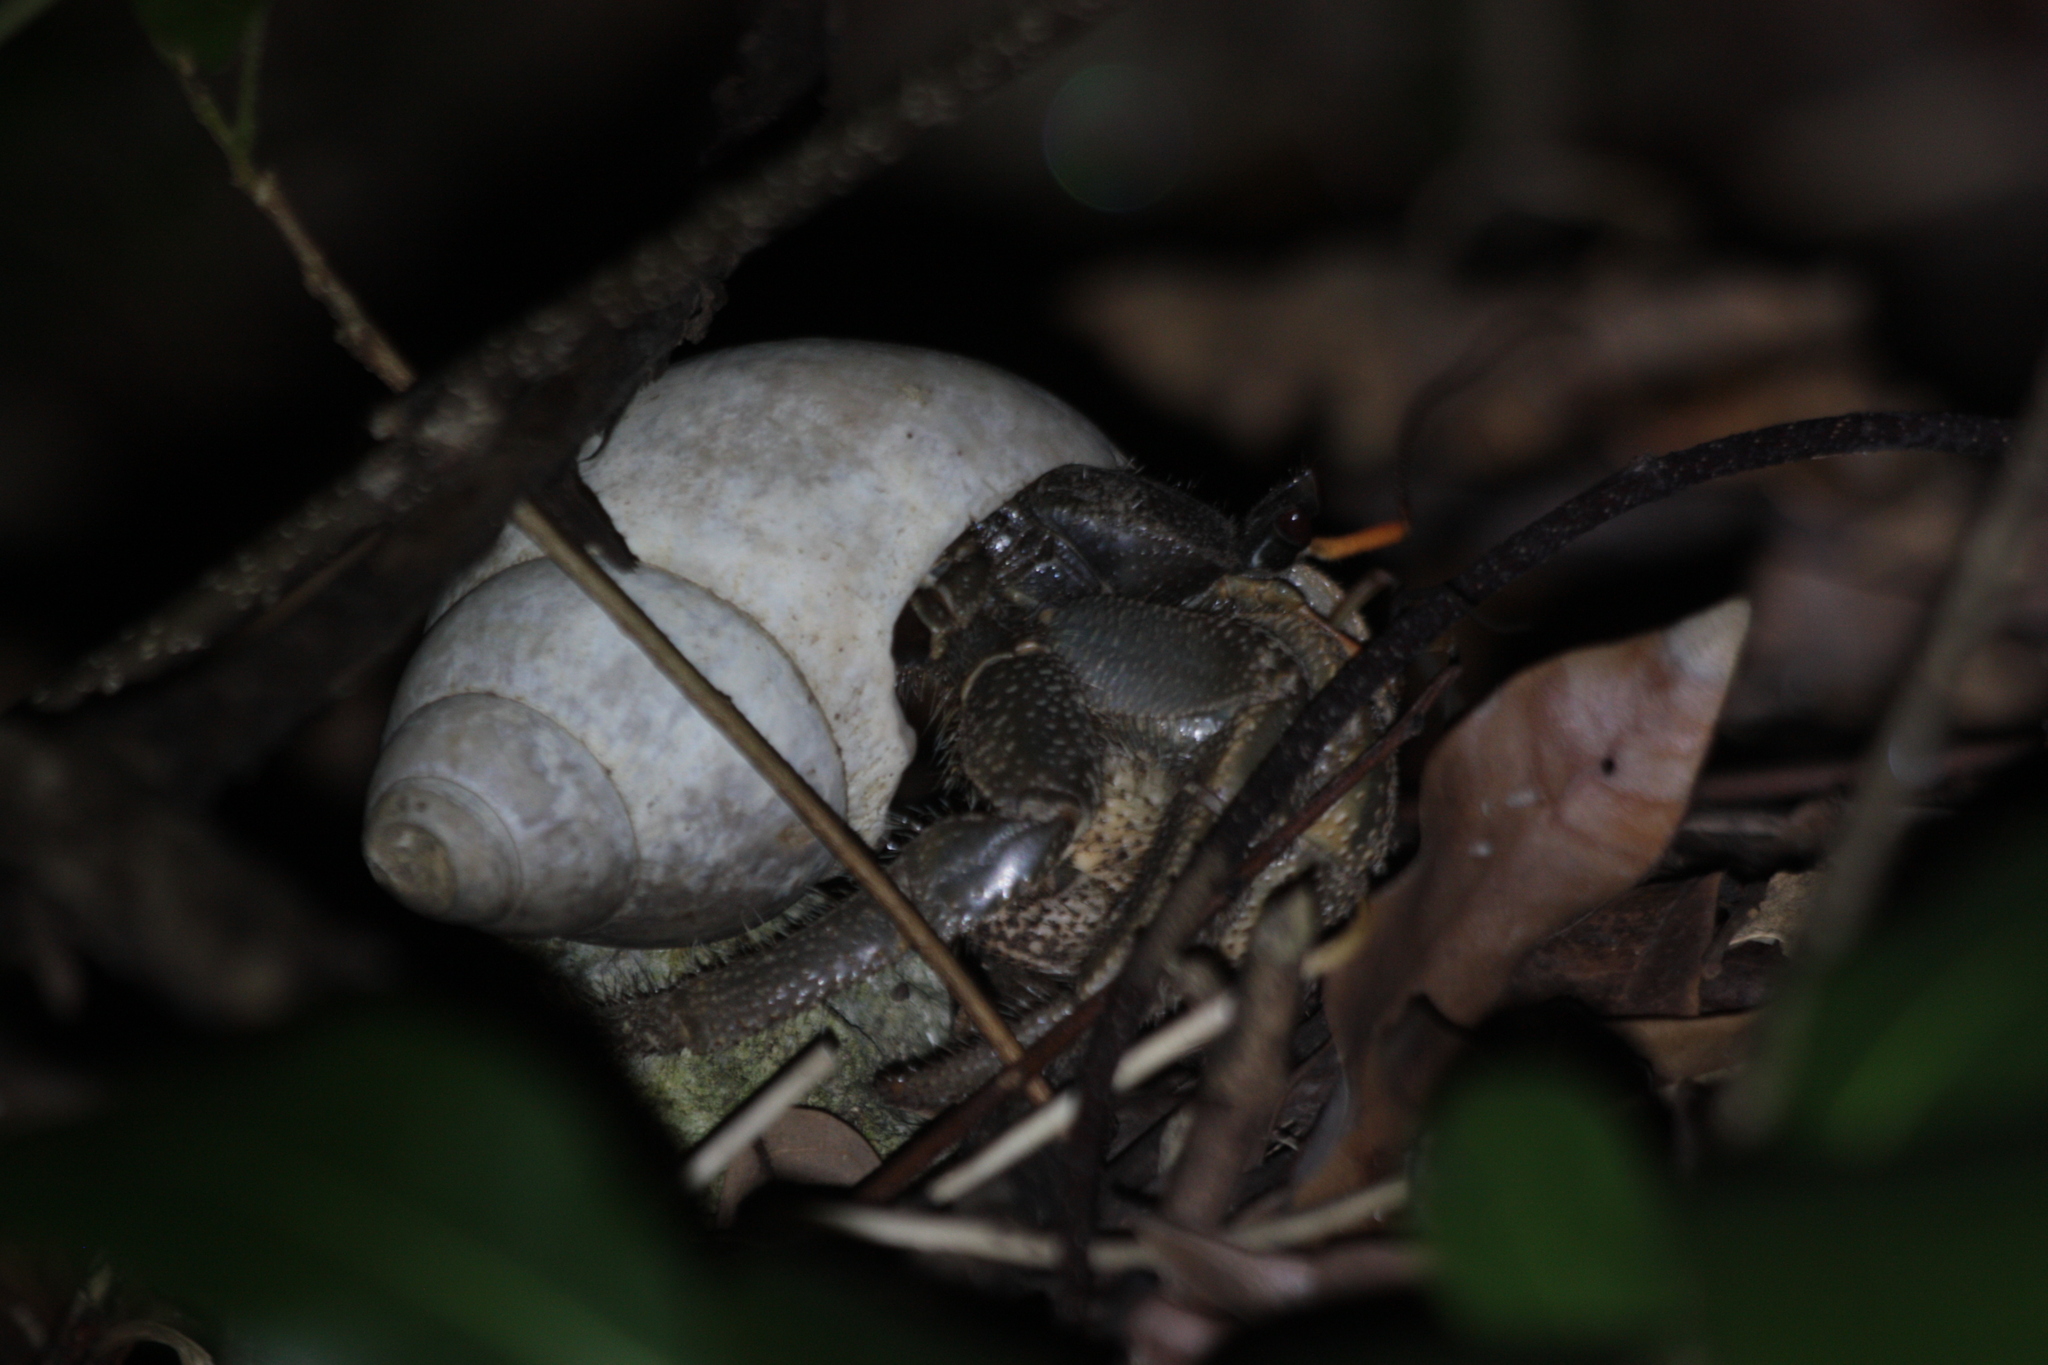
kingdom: Animalia
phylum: Arthropoda
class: Malacostraca
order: Decapoda
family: Coenobitidae
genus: Coenobita
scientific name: Coenobita cavipes
